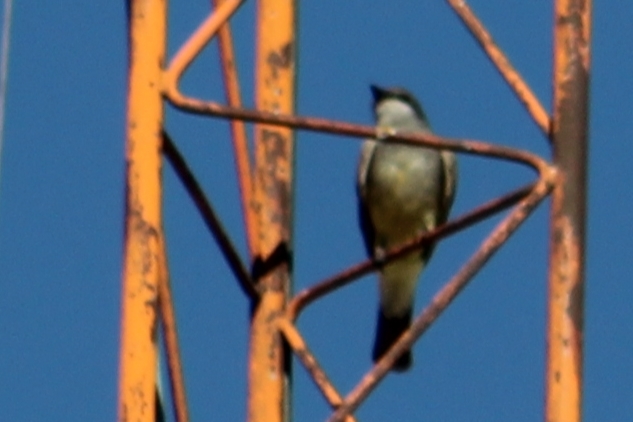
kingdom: Animalia
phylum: Chordata
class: Aves
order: Passeriformes
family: Tyrannidae
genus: Tyrannus
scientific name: Tyrannus vociferans
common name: Cassin's kingbird
